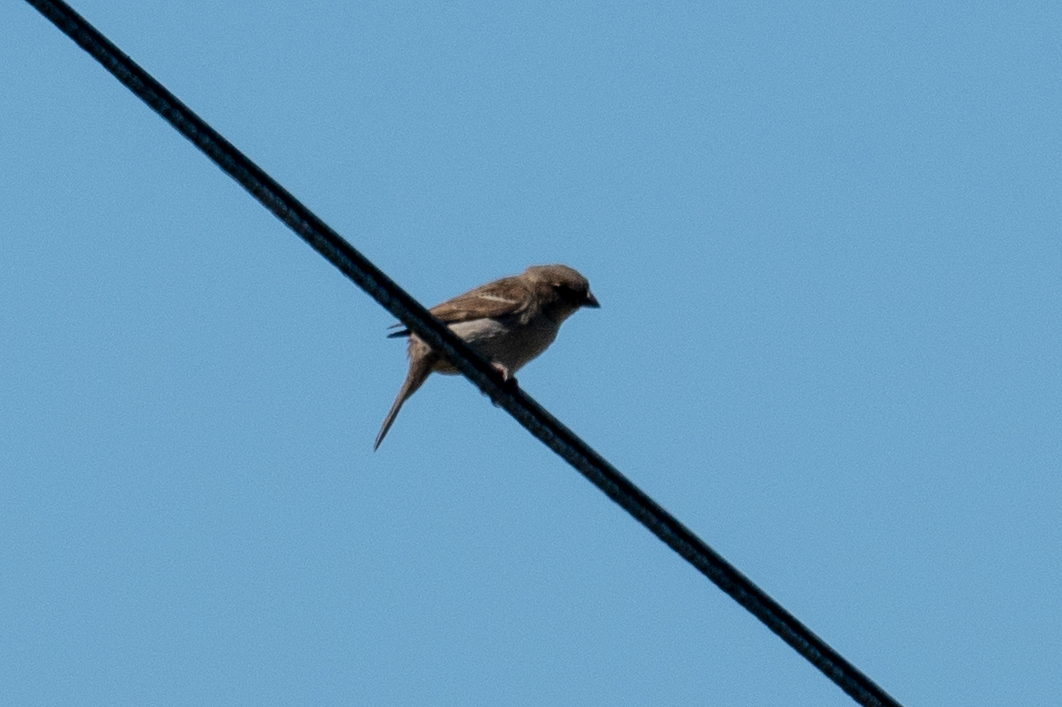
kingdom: Animalia
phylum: Chordata
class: Aves
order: Passeriformes
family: Passeridae
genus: Passer
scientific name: Passer domesticus
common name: House sparrow
